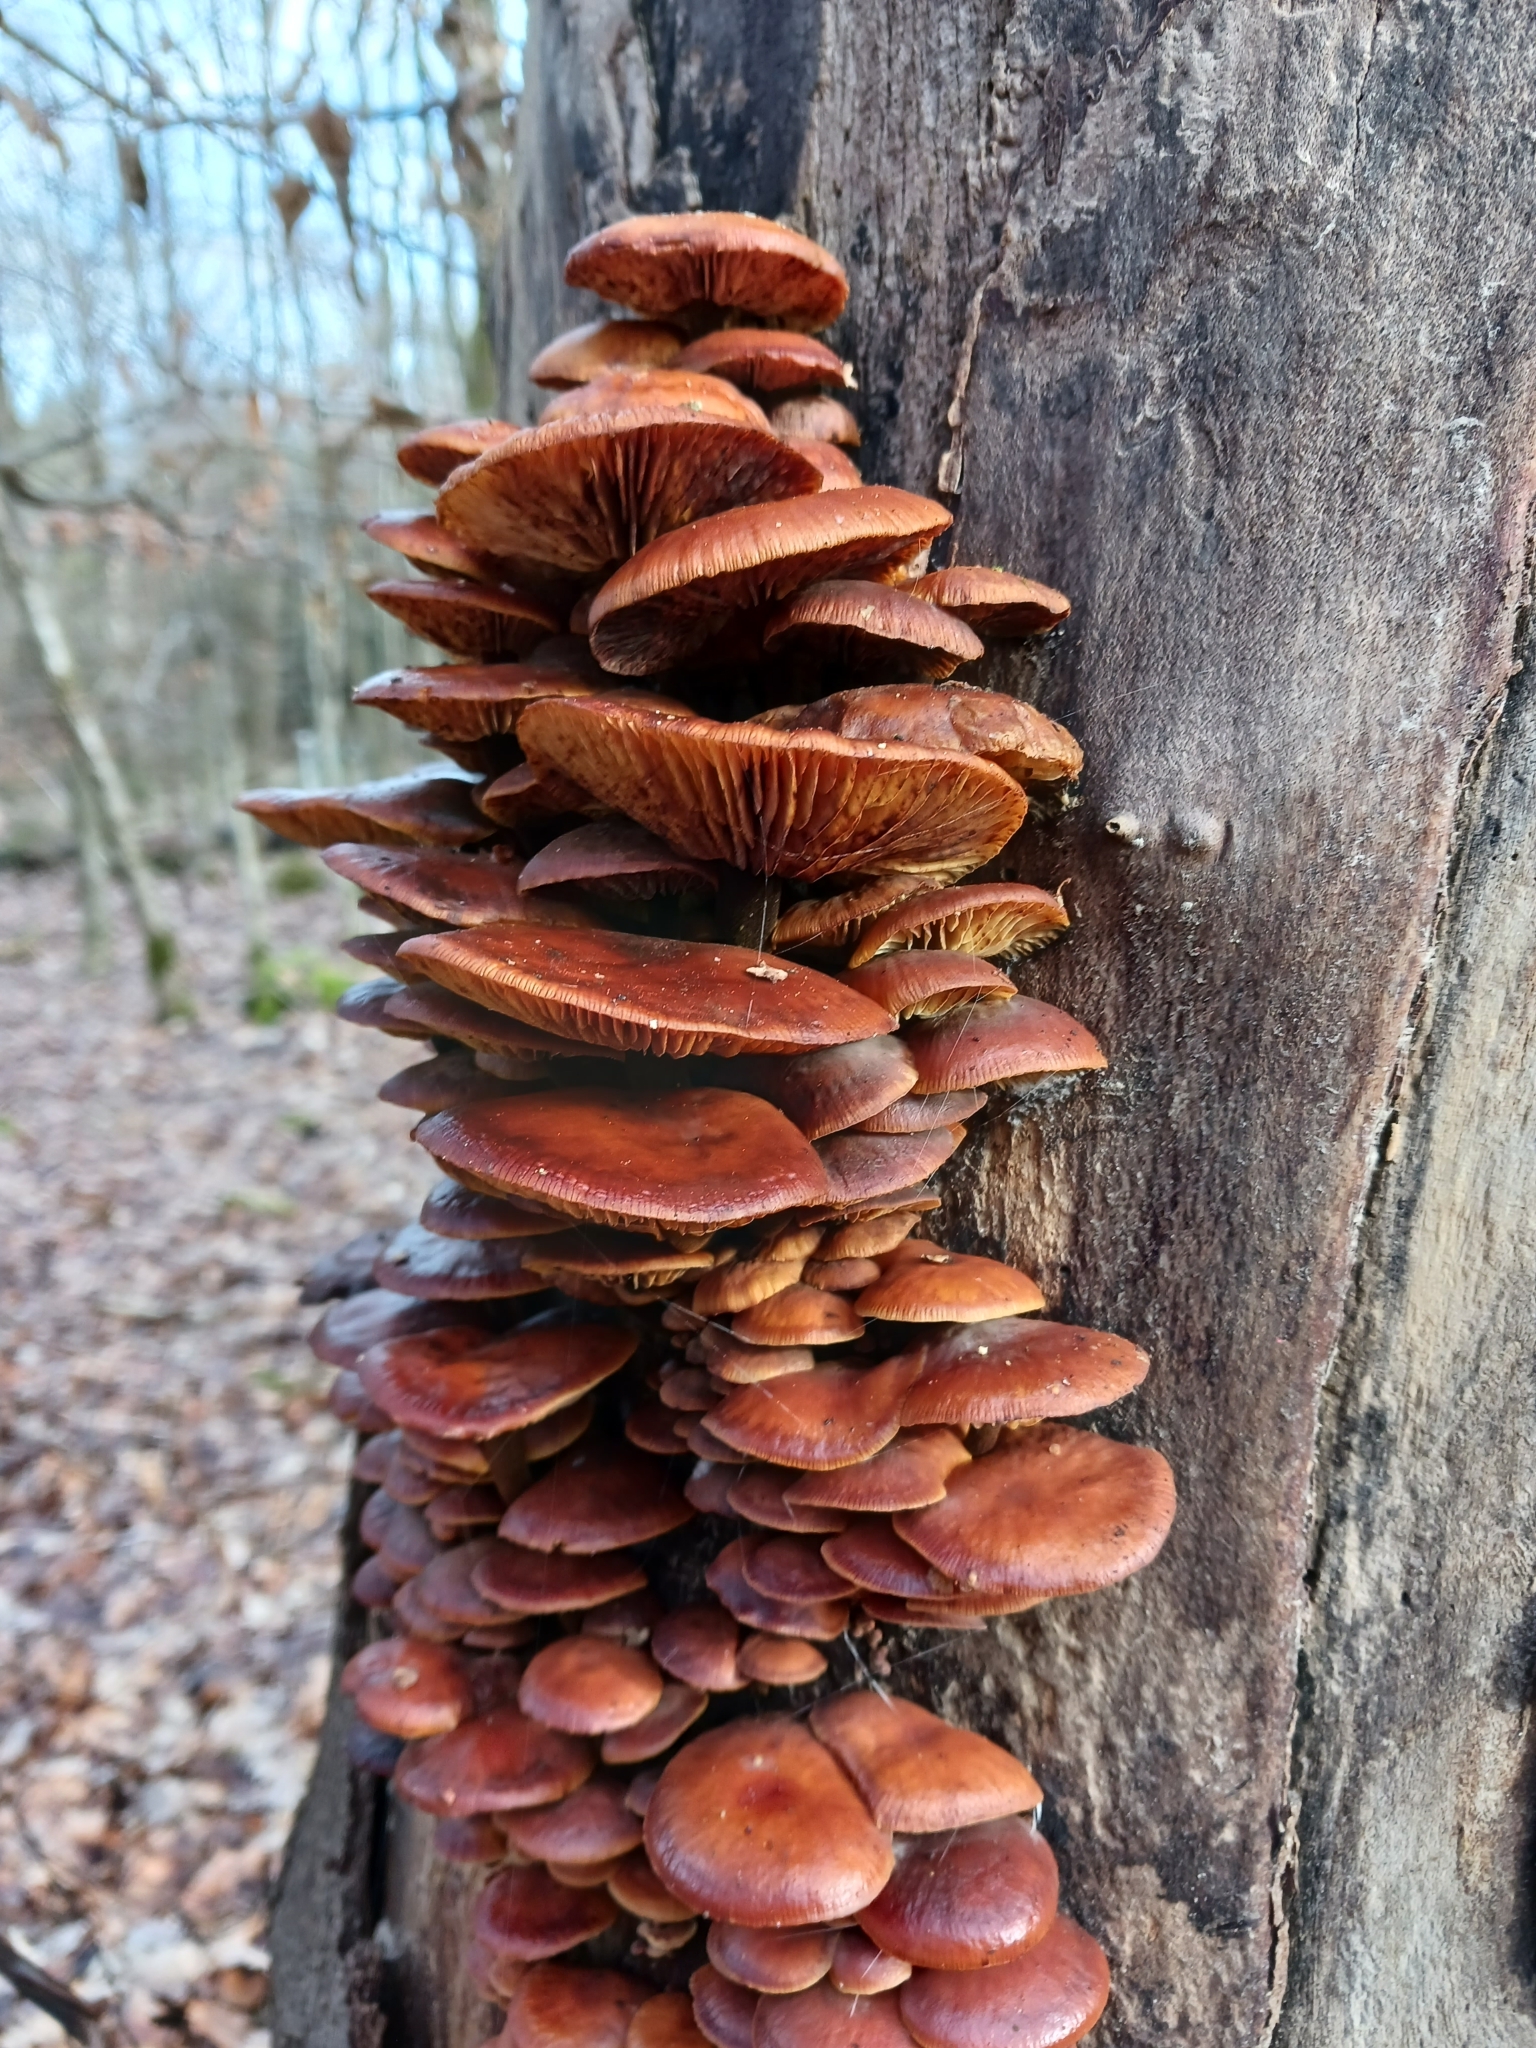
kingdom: Fungi
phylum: Basidiomycota
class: Agaricomycetes
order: Agaricales
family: Physalacriaceae
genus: Flammulina
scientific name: Flammulina
